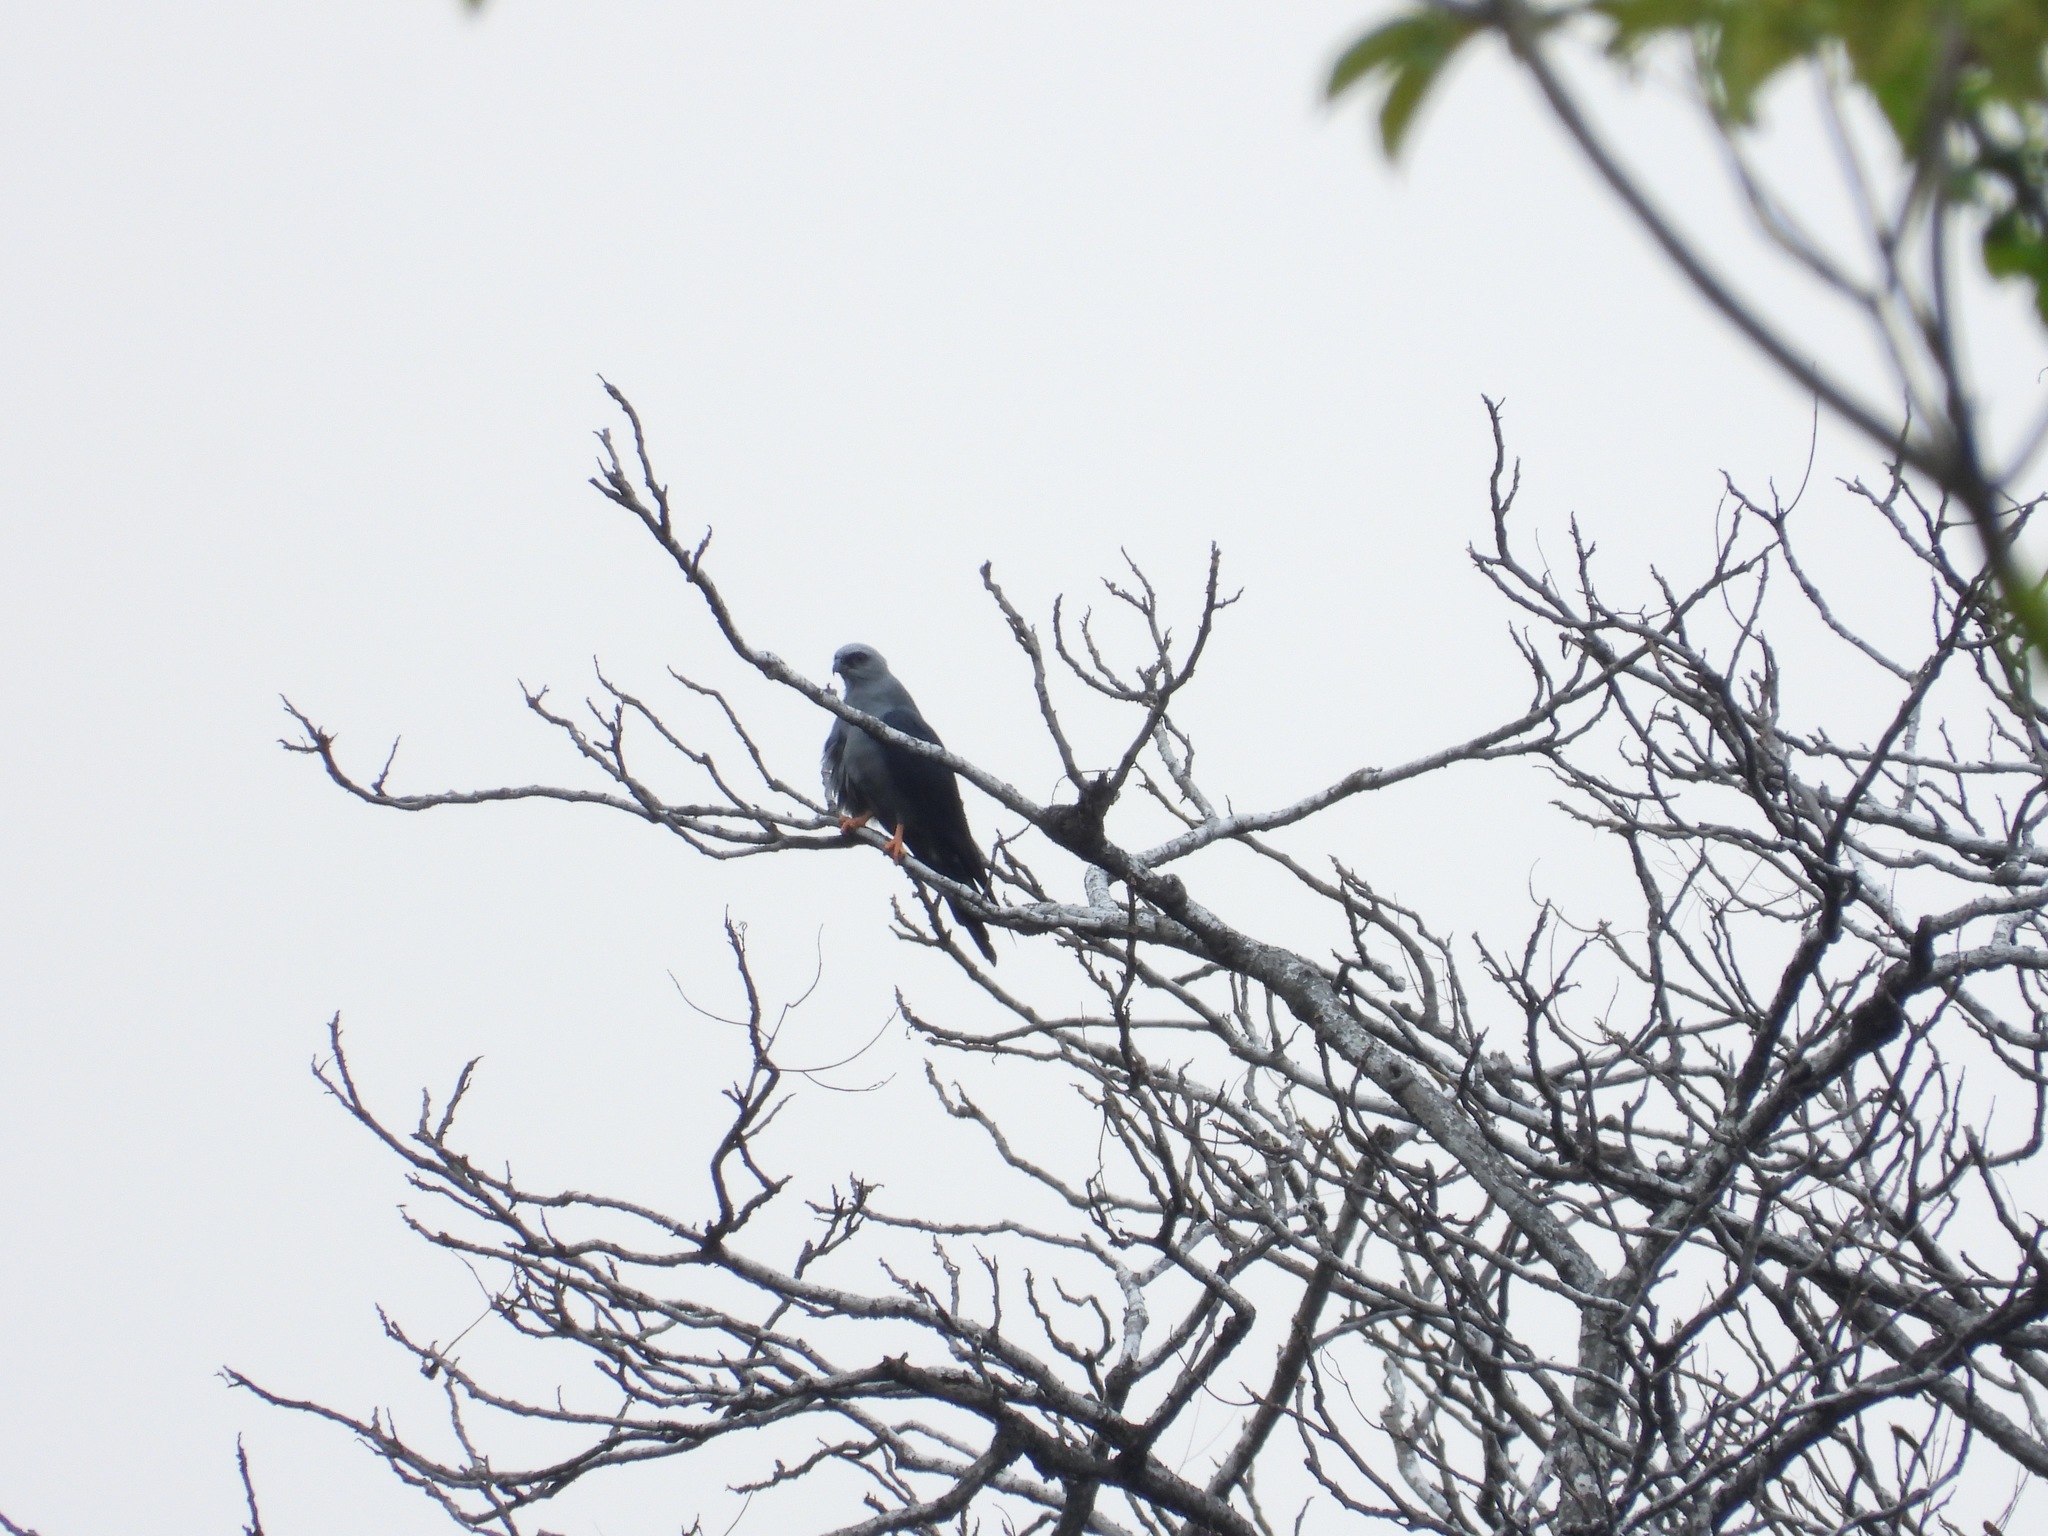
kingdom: Animalia
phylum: Chordata
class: Aves
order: Accipitriformes
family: Accipitridae
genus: Ictinia
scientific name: Ictinia plumbea
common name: Plumbeous kite
